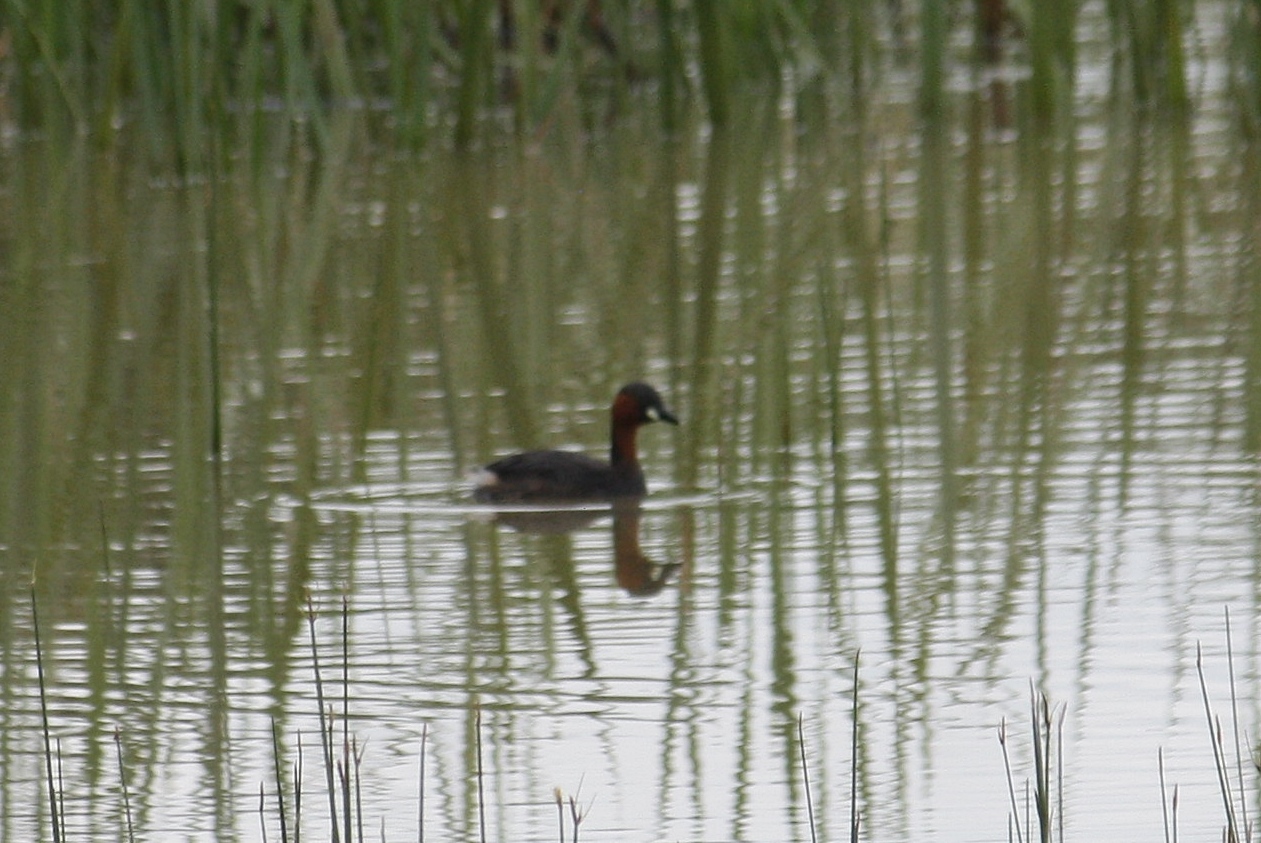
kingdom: Animalia
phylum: Chordata
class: Aves
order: Podicipediformes
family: Podicipedidae
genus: Tachybaptus
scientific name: Tachybaptus ruficollis
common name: Little grebe
